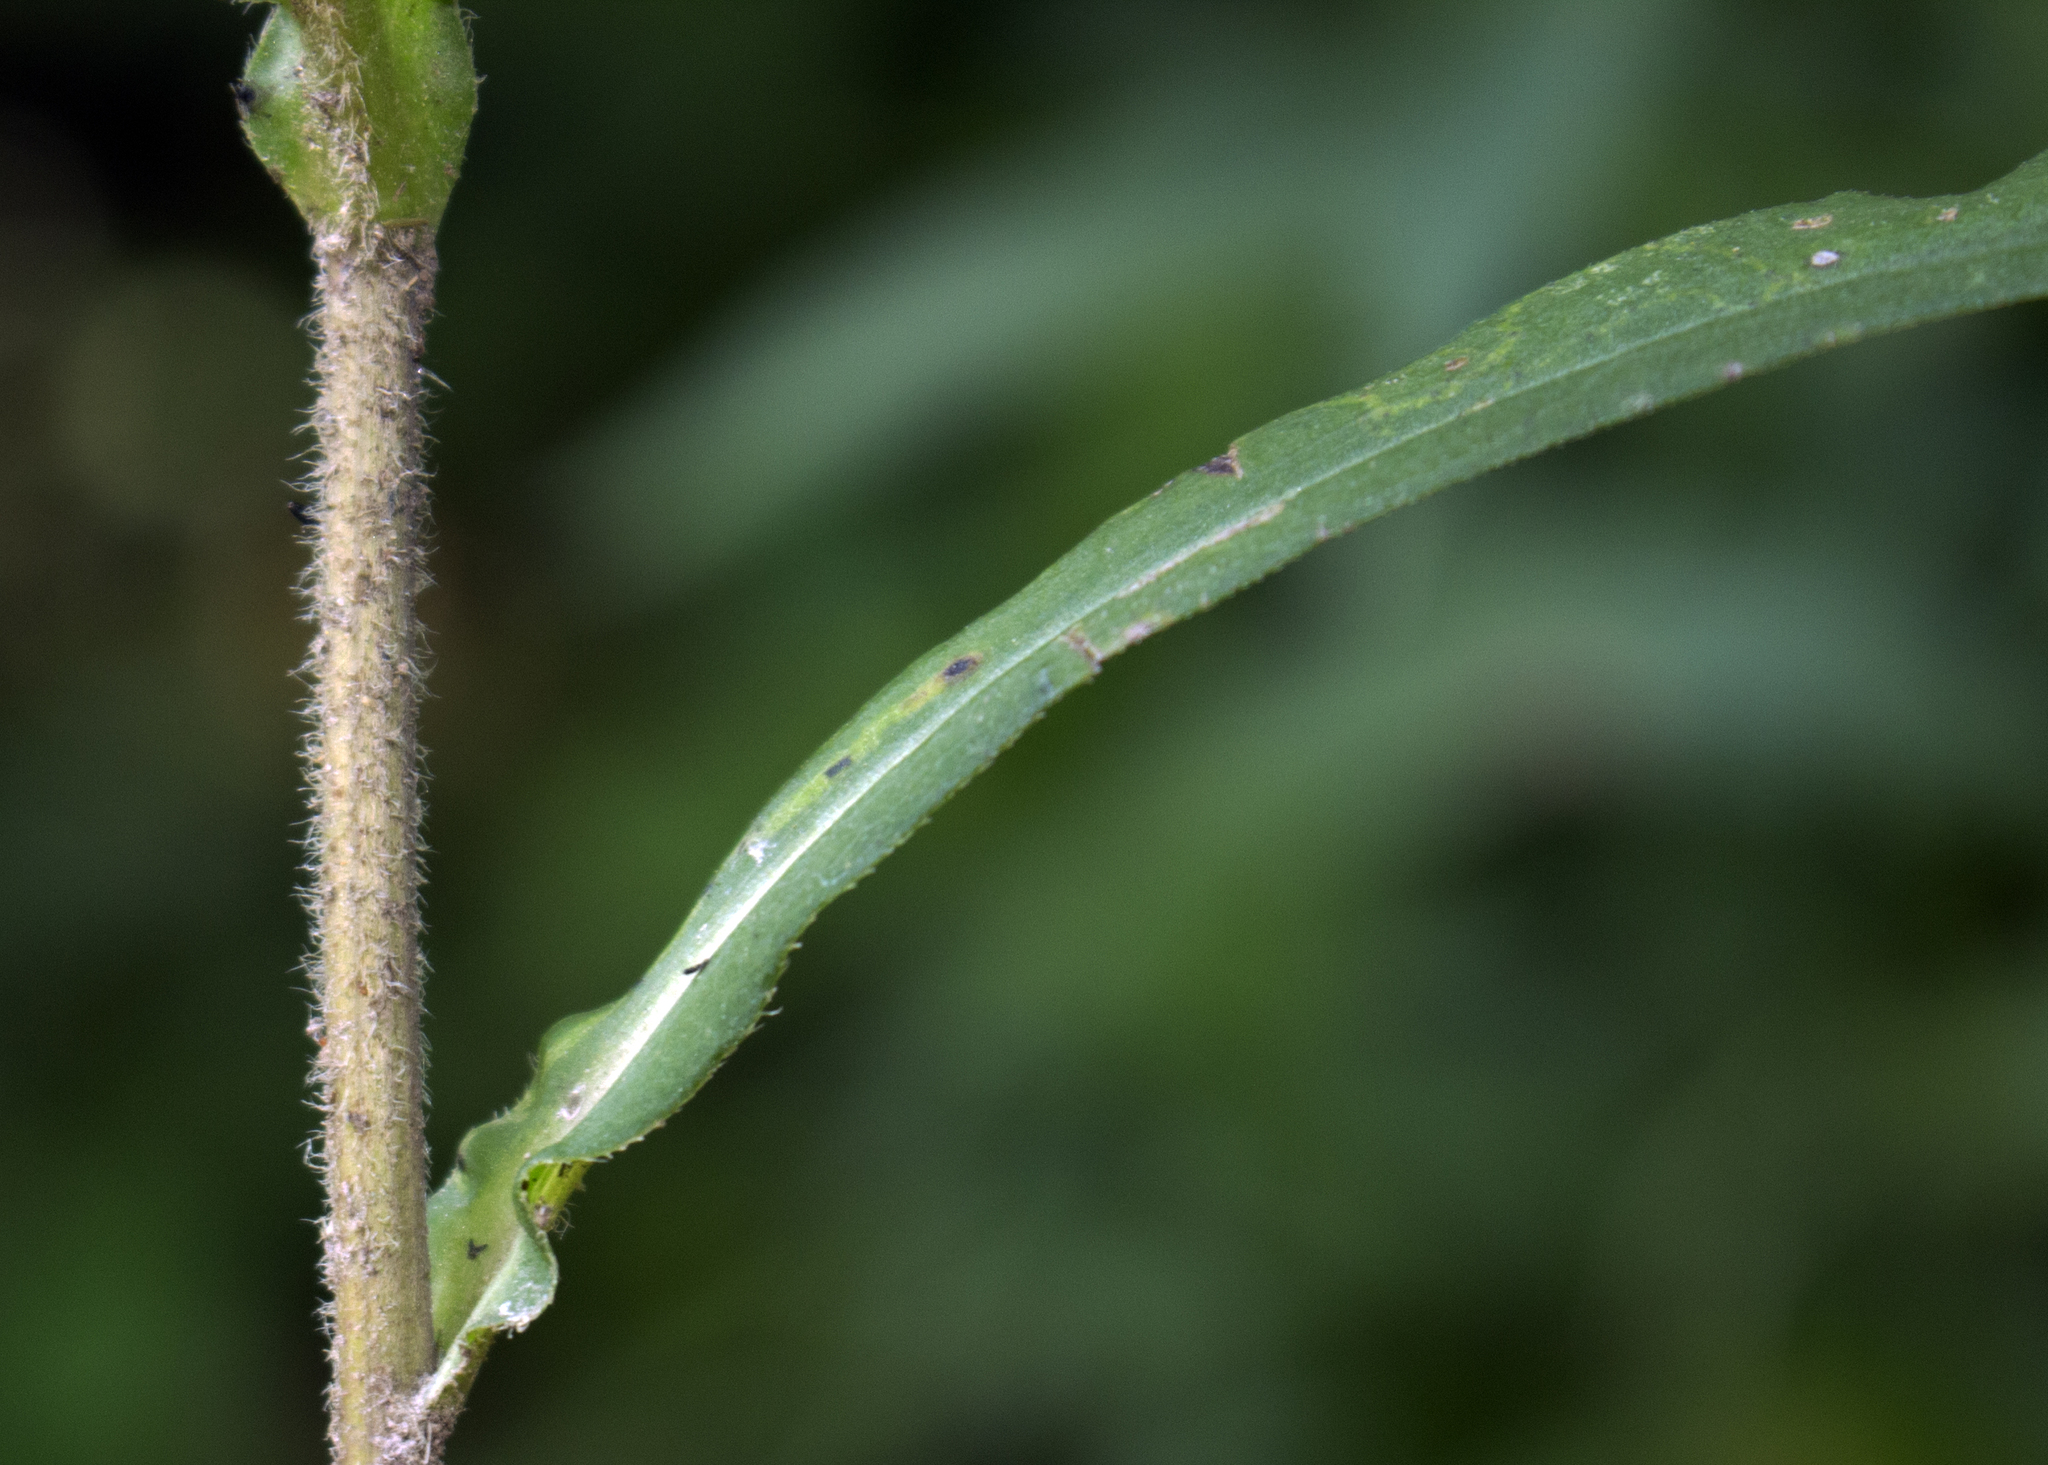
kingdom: Plantae
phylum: Tracheophyta
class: Magnoliopsida
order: Asterales
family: Asteraceae
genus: Symphyotrichum
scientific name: Symphyotrichum lateriflorum
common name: Calico aster
